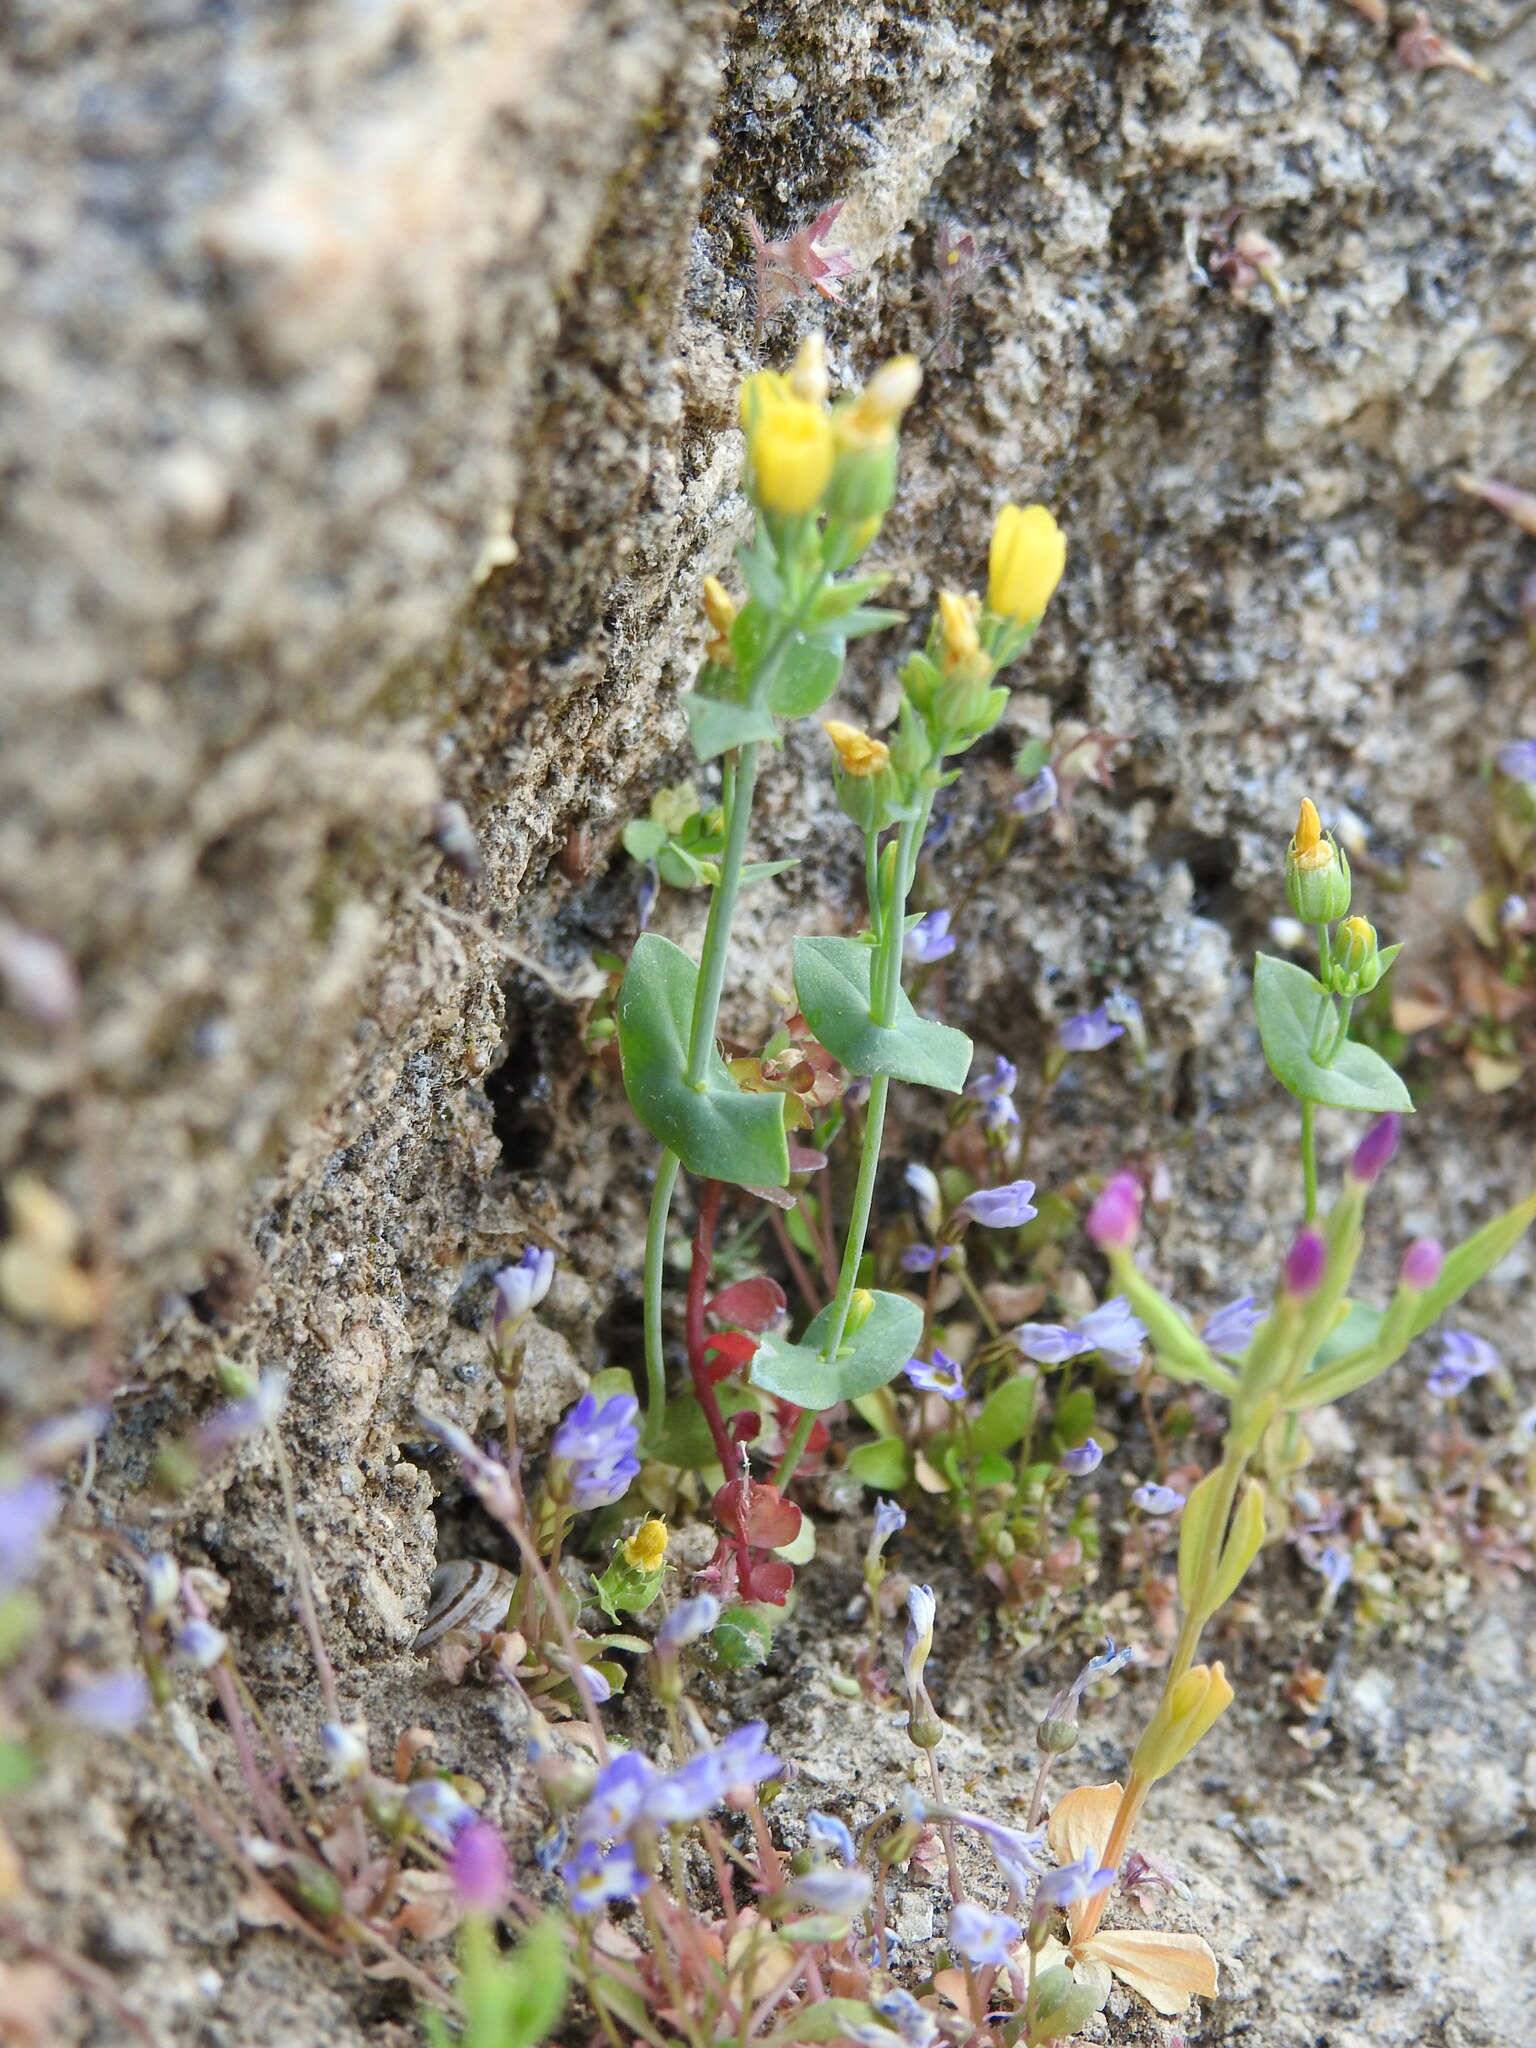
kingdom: Plantae
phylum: Tracheophyta
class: Magnoliopsida
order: Gentianales
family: Gentianaceae
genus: Blackstonia
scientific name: Blackstonia perfoliata
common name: Yellow-wort
